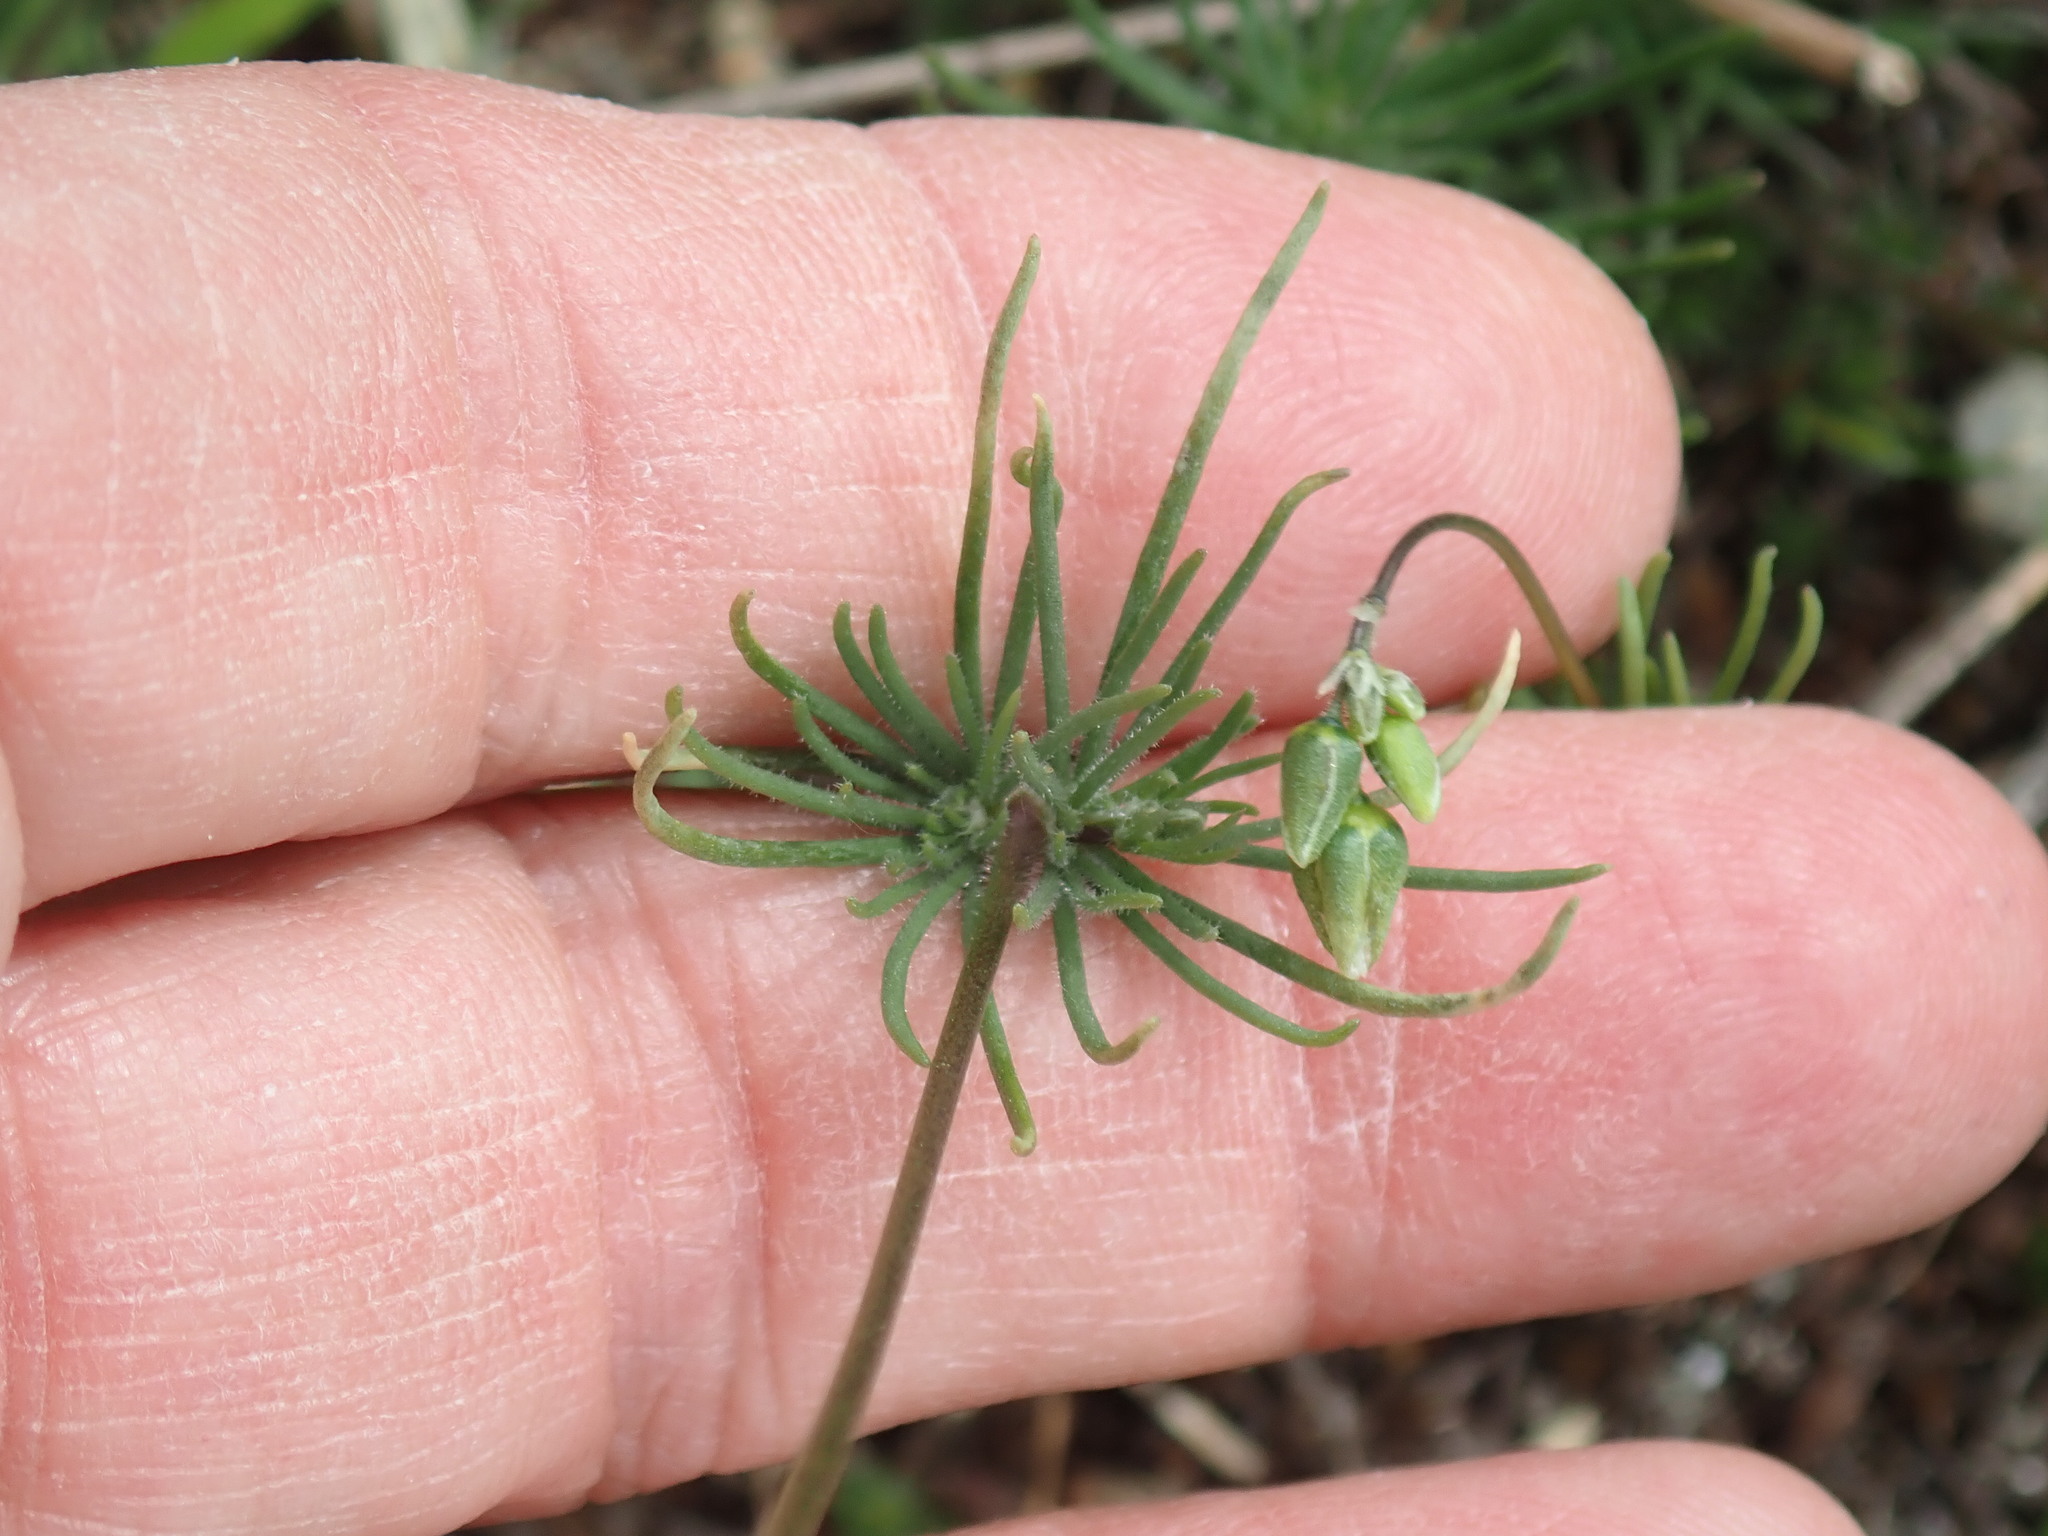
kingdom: Plantae
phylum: Tracheophyta
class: Magnoliopsida
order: Caryophyllales
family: Caryophyllaceae
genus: Spergula
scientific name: Spergula arvensis
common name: Corn spurrey
